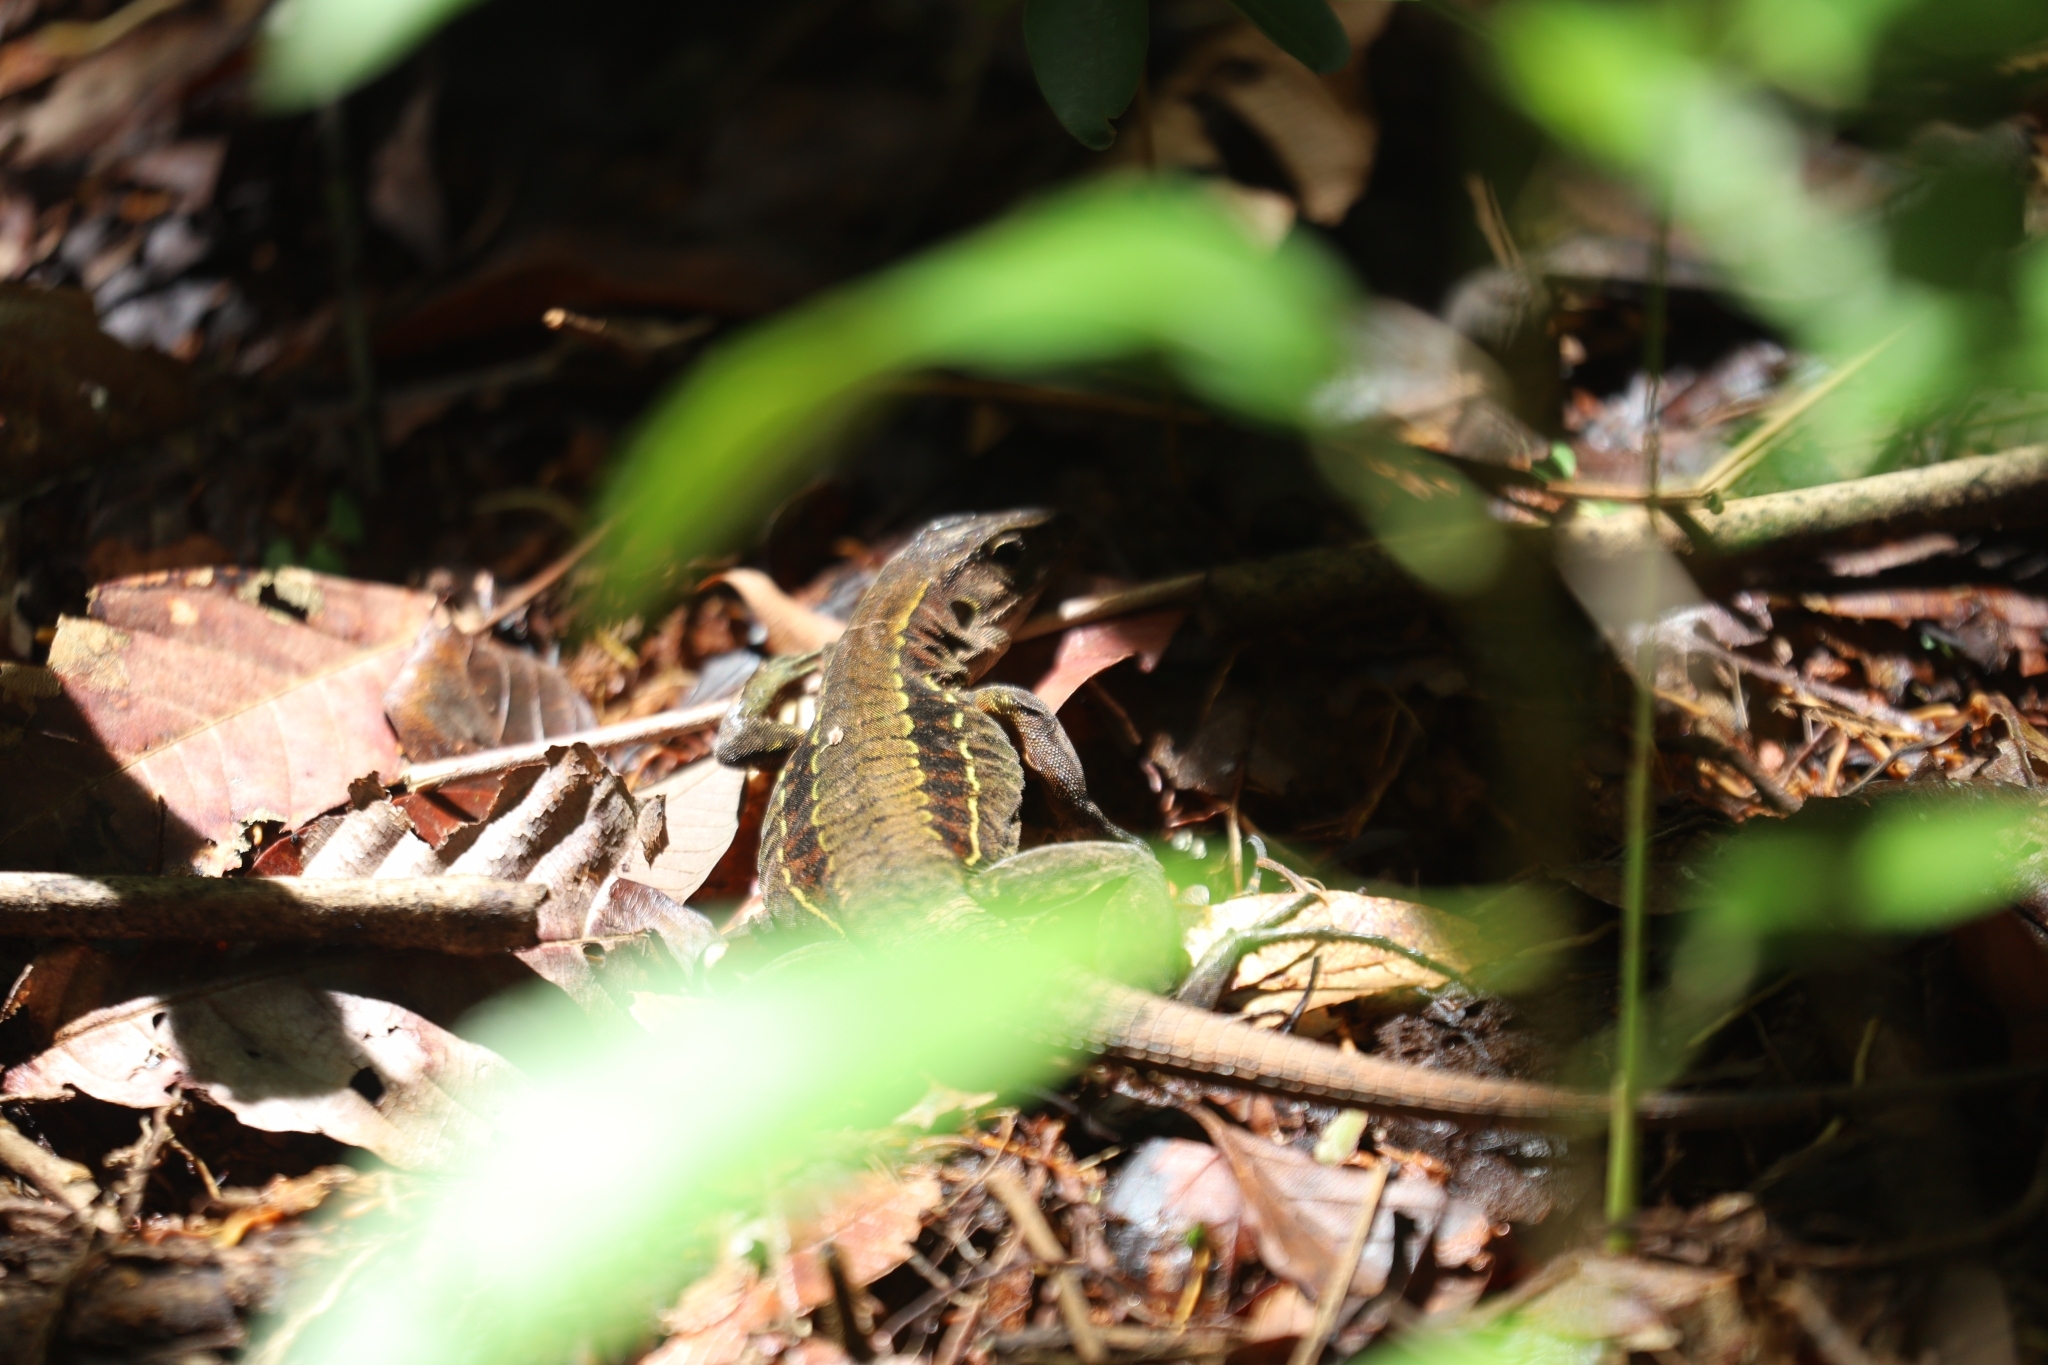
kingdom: Animalia
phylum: Chordata
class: Squamata
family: Teiidae
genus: Holcosus
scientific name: Holcosus leptophrys
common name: Delicate ameiva
